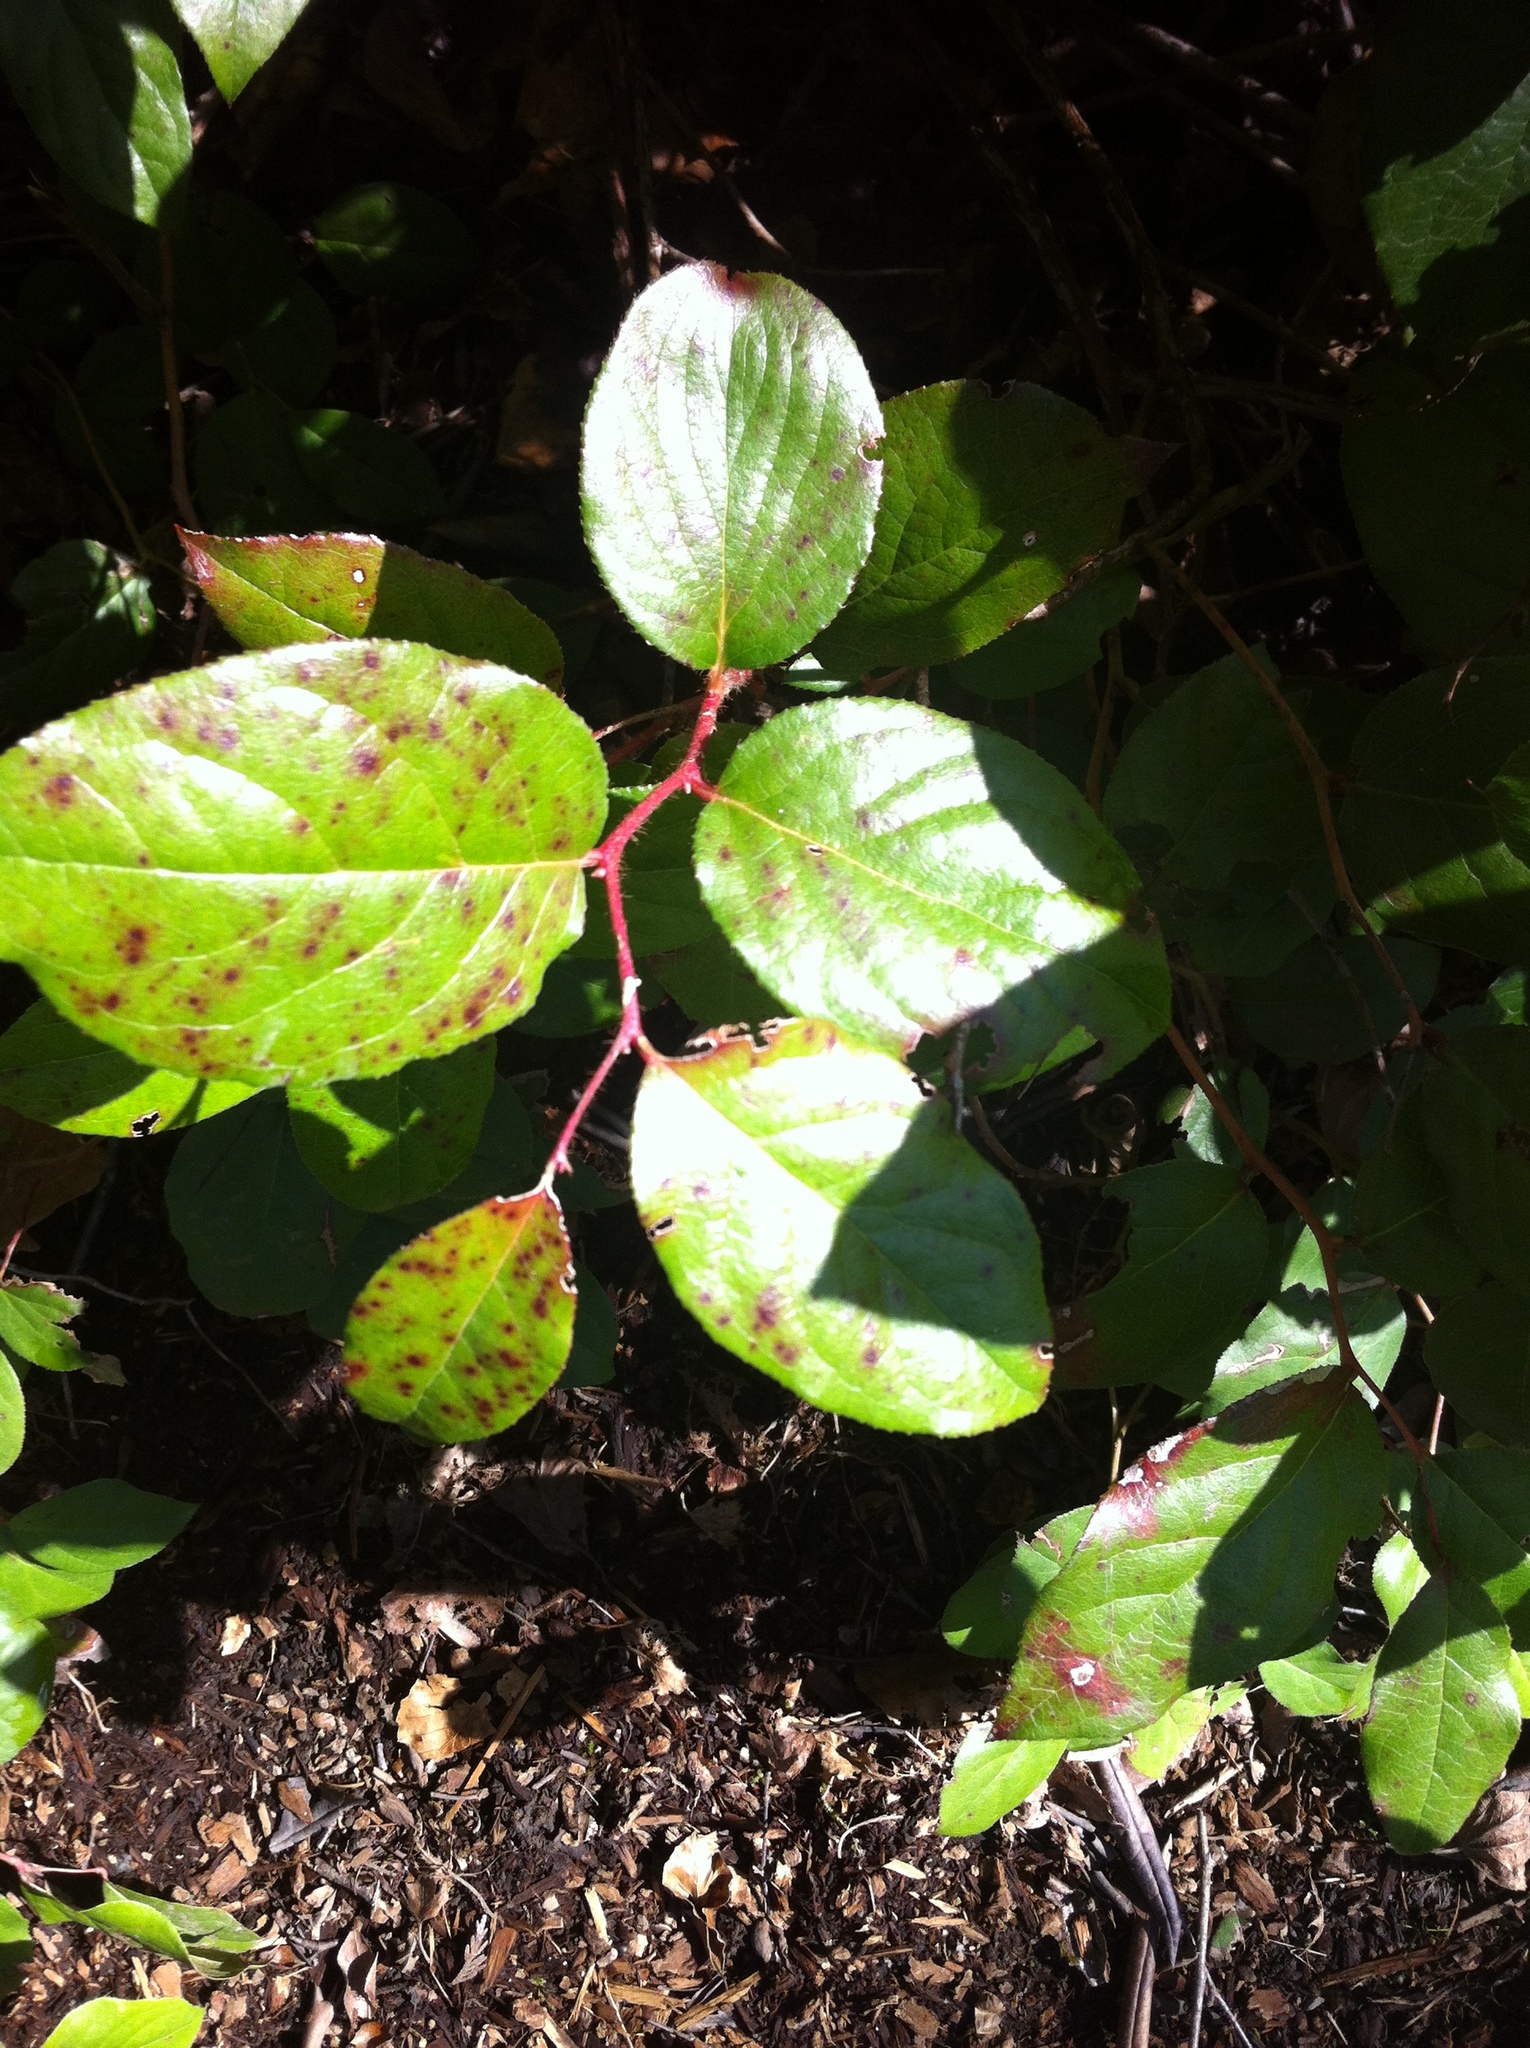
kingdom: Plantae
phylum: Tracheophyta
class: Magnoliopsida
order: Ericales
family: Ericaceae
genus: Gaultheria
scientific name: Gaultheria shallon
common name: Shallon
